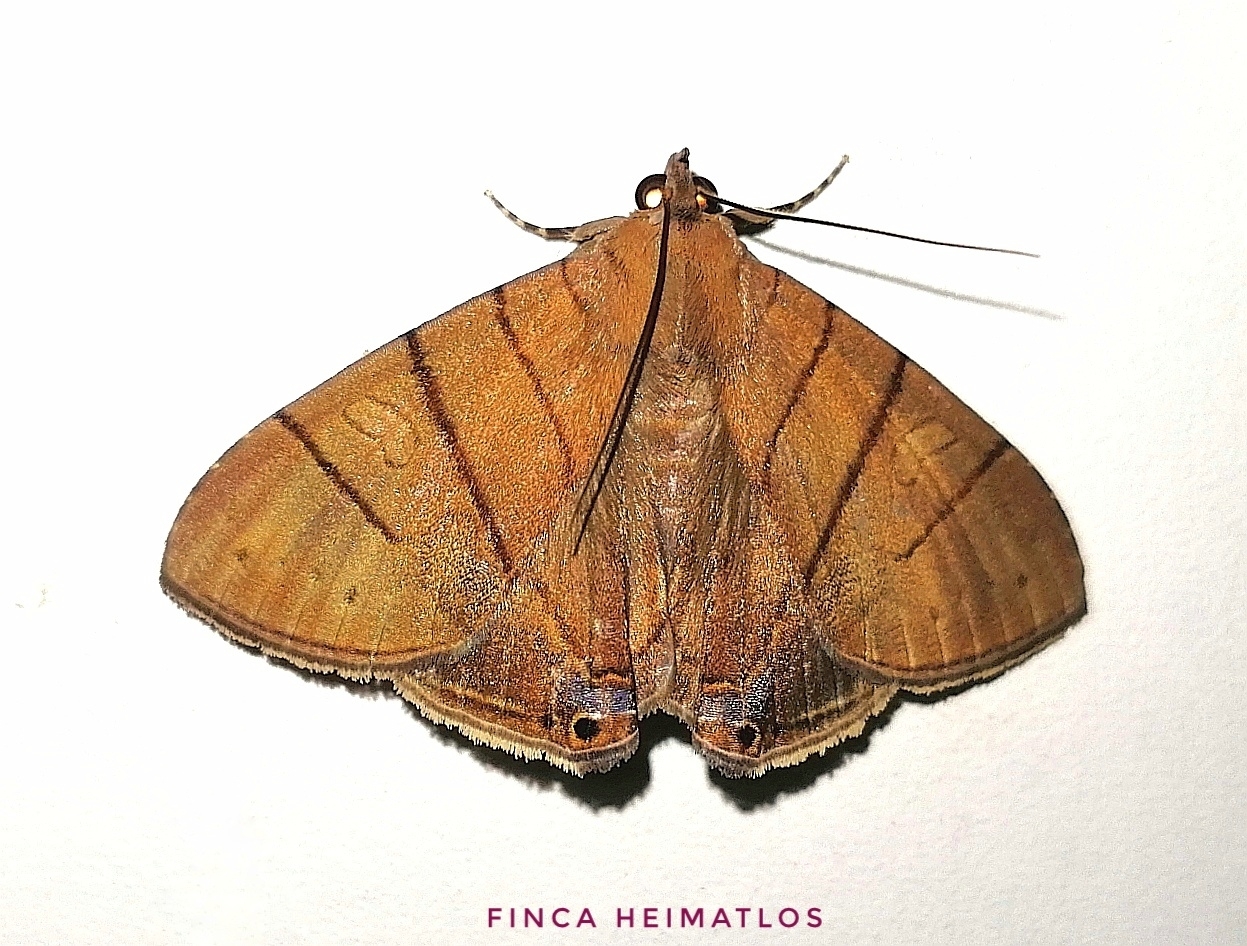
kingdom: Animalia
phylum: Arthropoda
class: Insecta
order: Lepidoptera
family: Erebidae
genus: Dyomyx
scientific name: Dyomyx lineata
